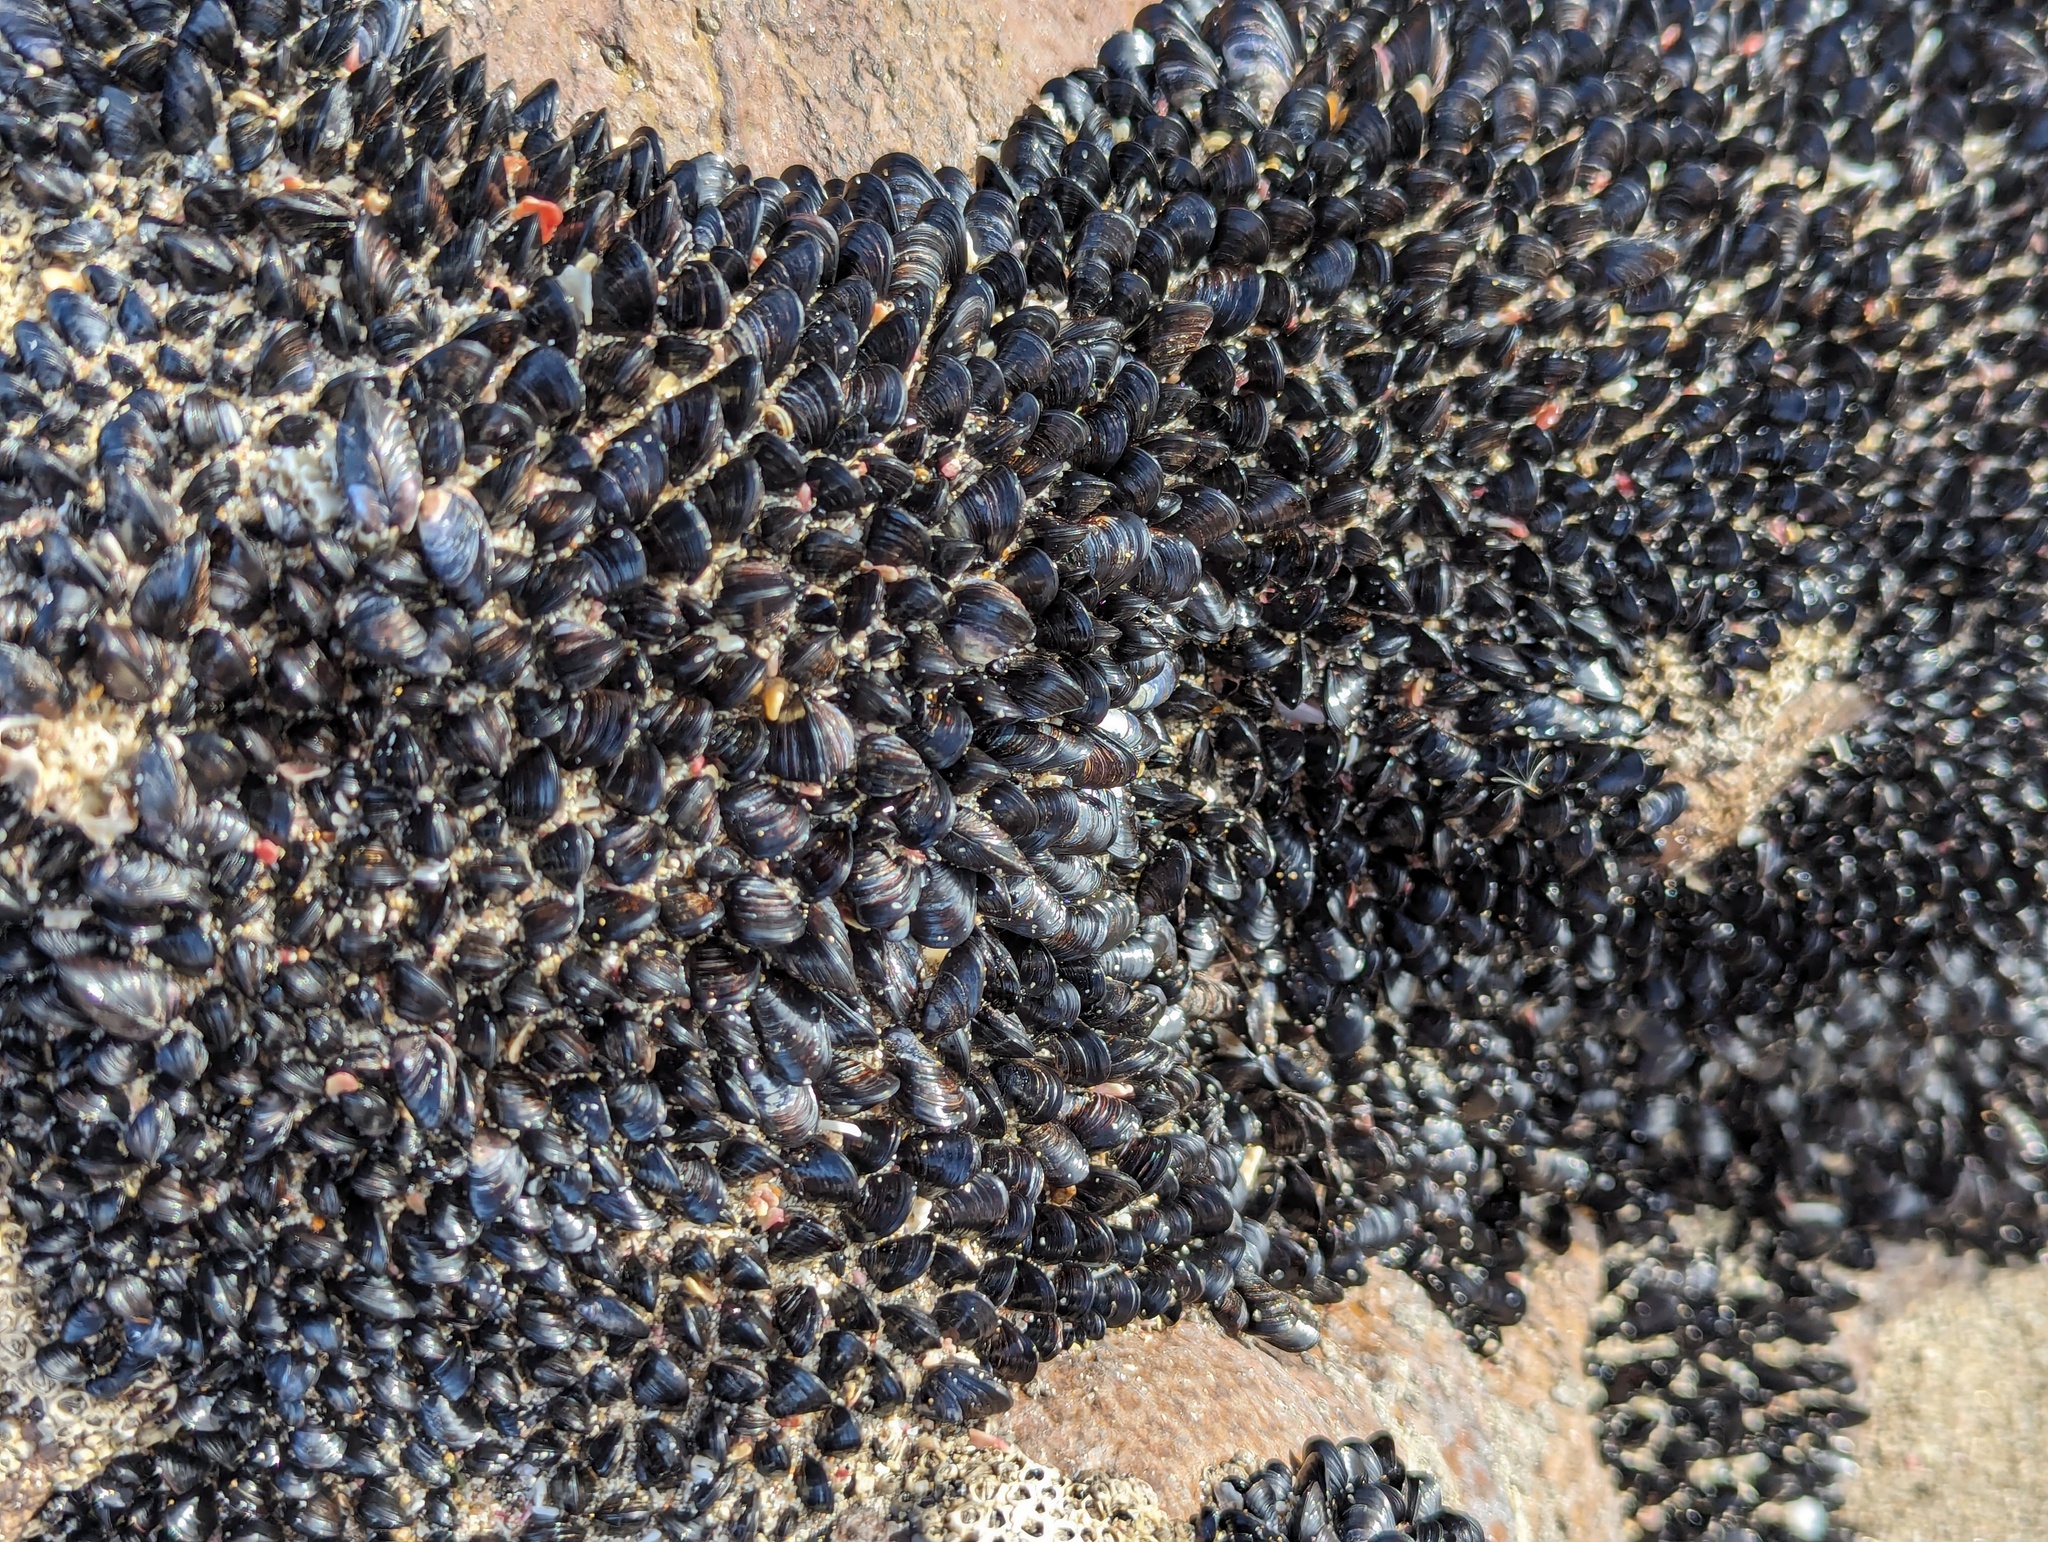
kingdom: Animalia
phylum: Mollusca
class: Bivalvia
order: Mytilida
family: Mytilidae
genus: Xenostrobus
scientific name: Xenostrobus neozelanicus
